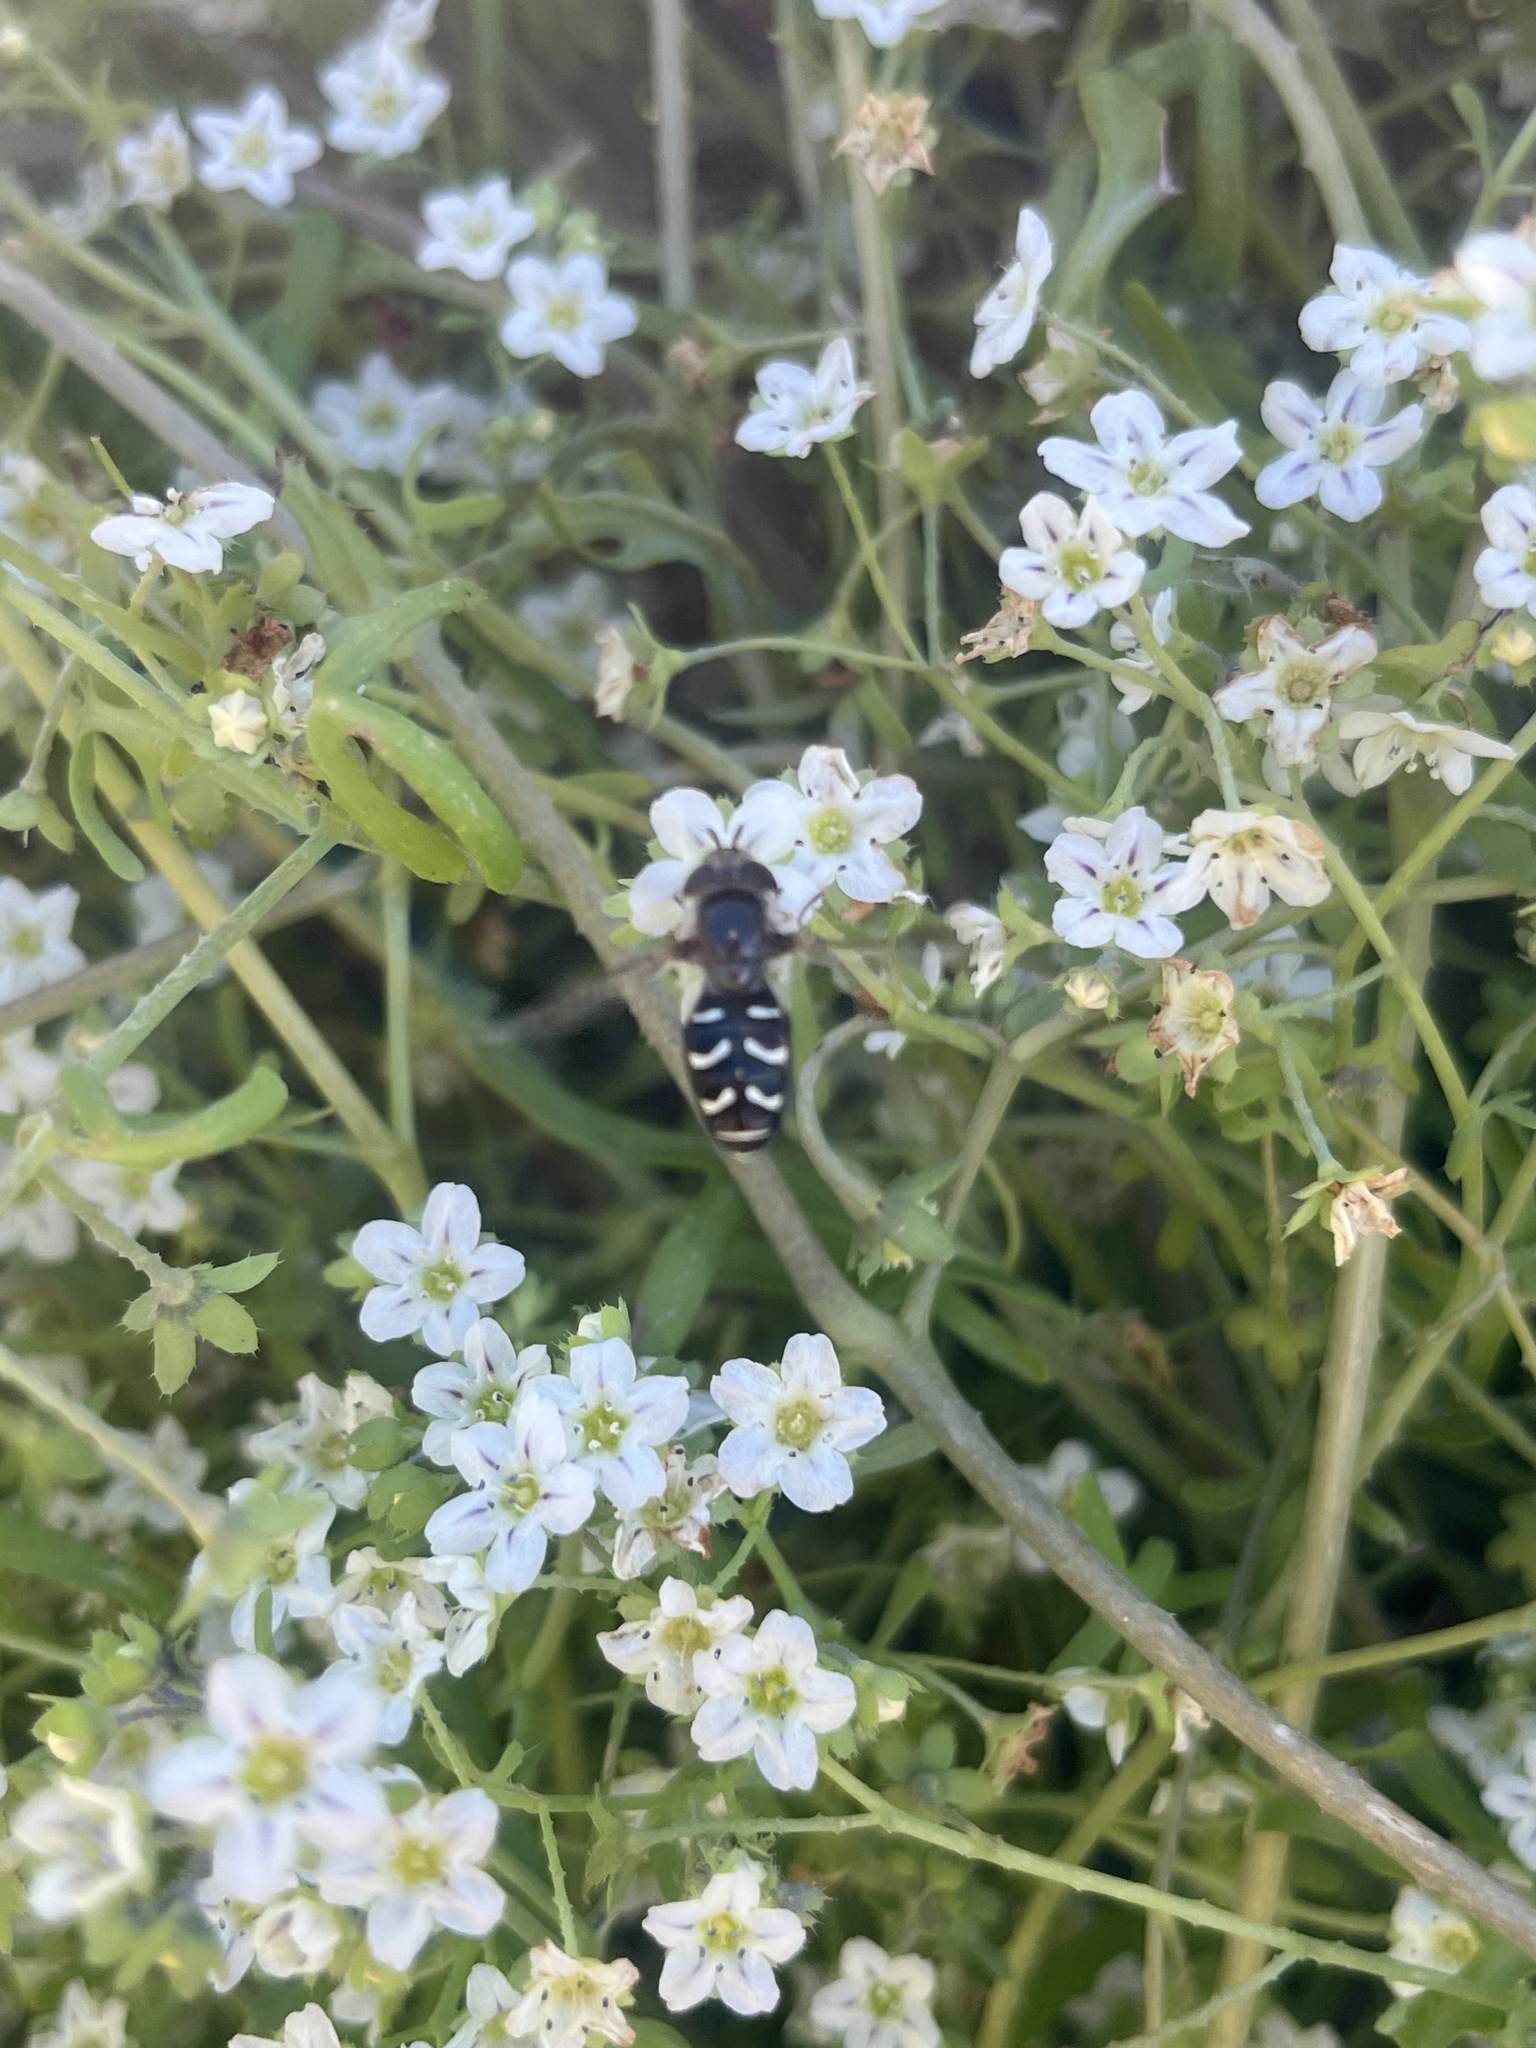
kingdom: Animalia
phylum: Arthropoda
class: Insecta
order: Diptera
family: Syrphidae
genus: Scaeva
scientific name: Scaeva affinis
